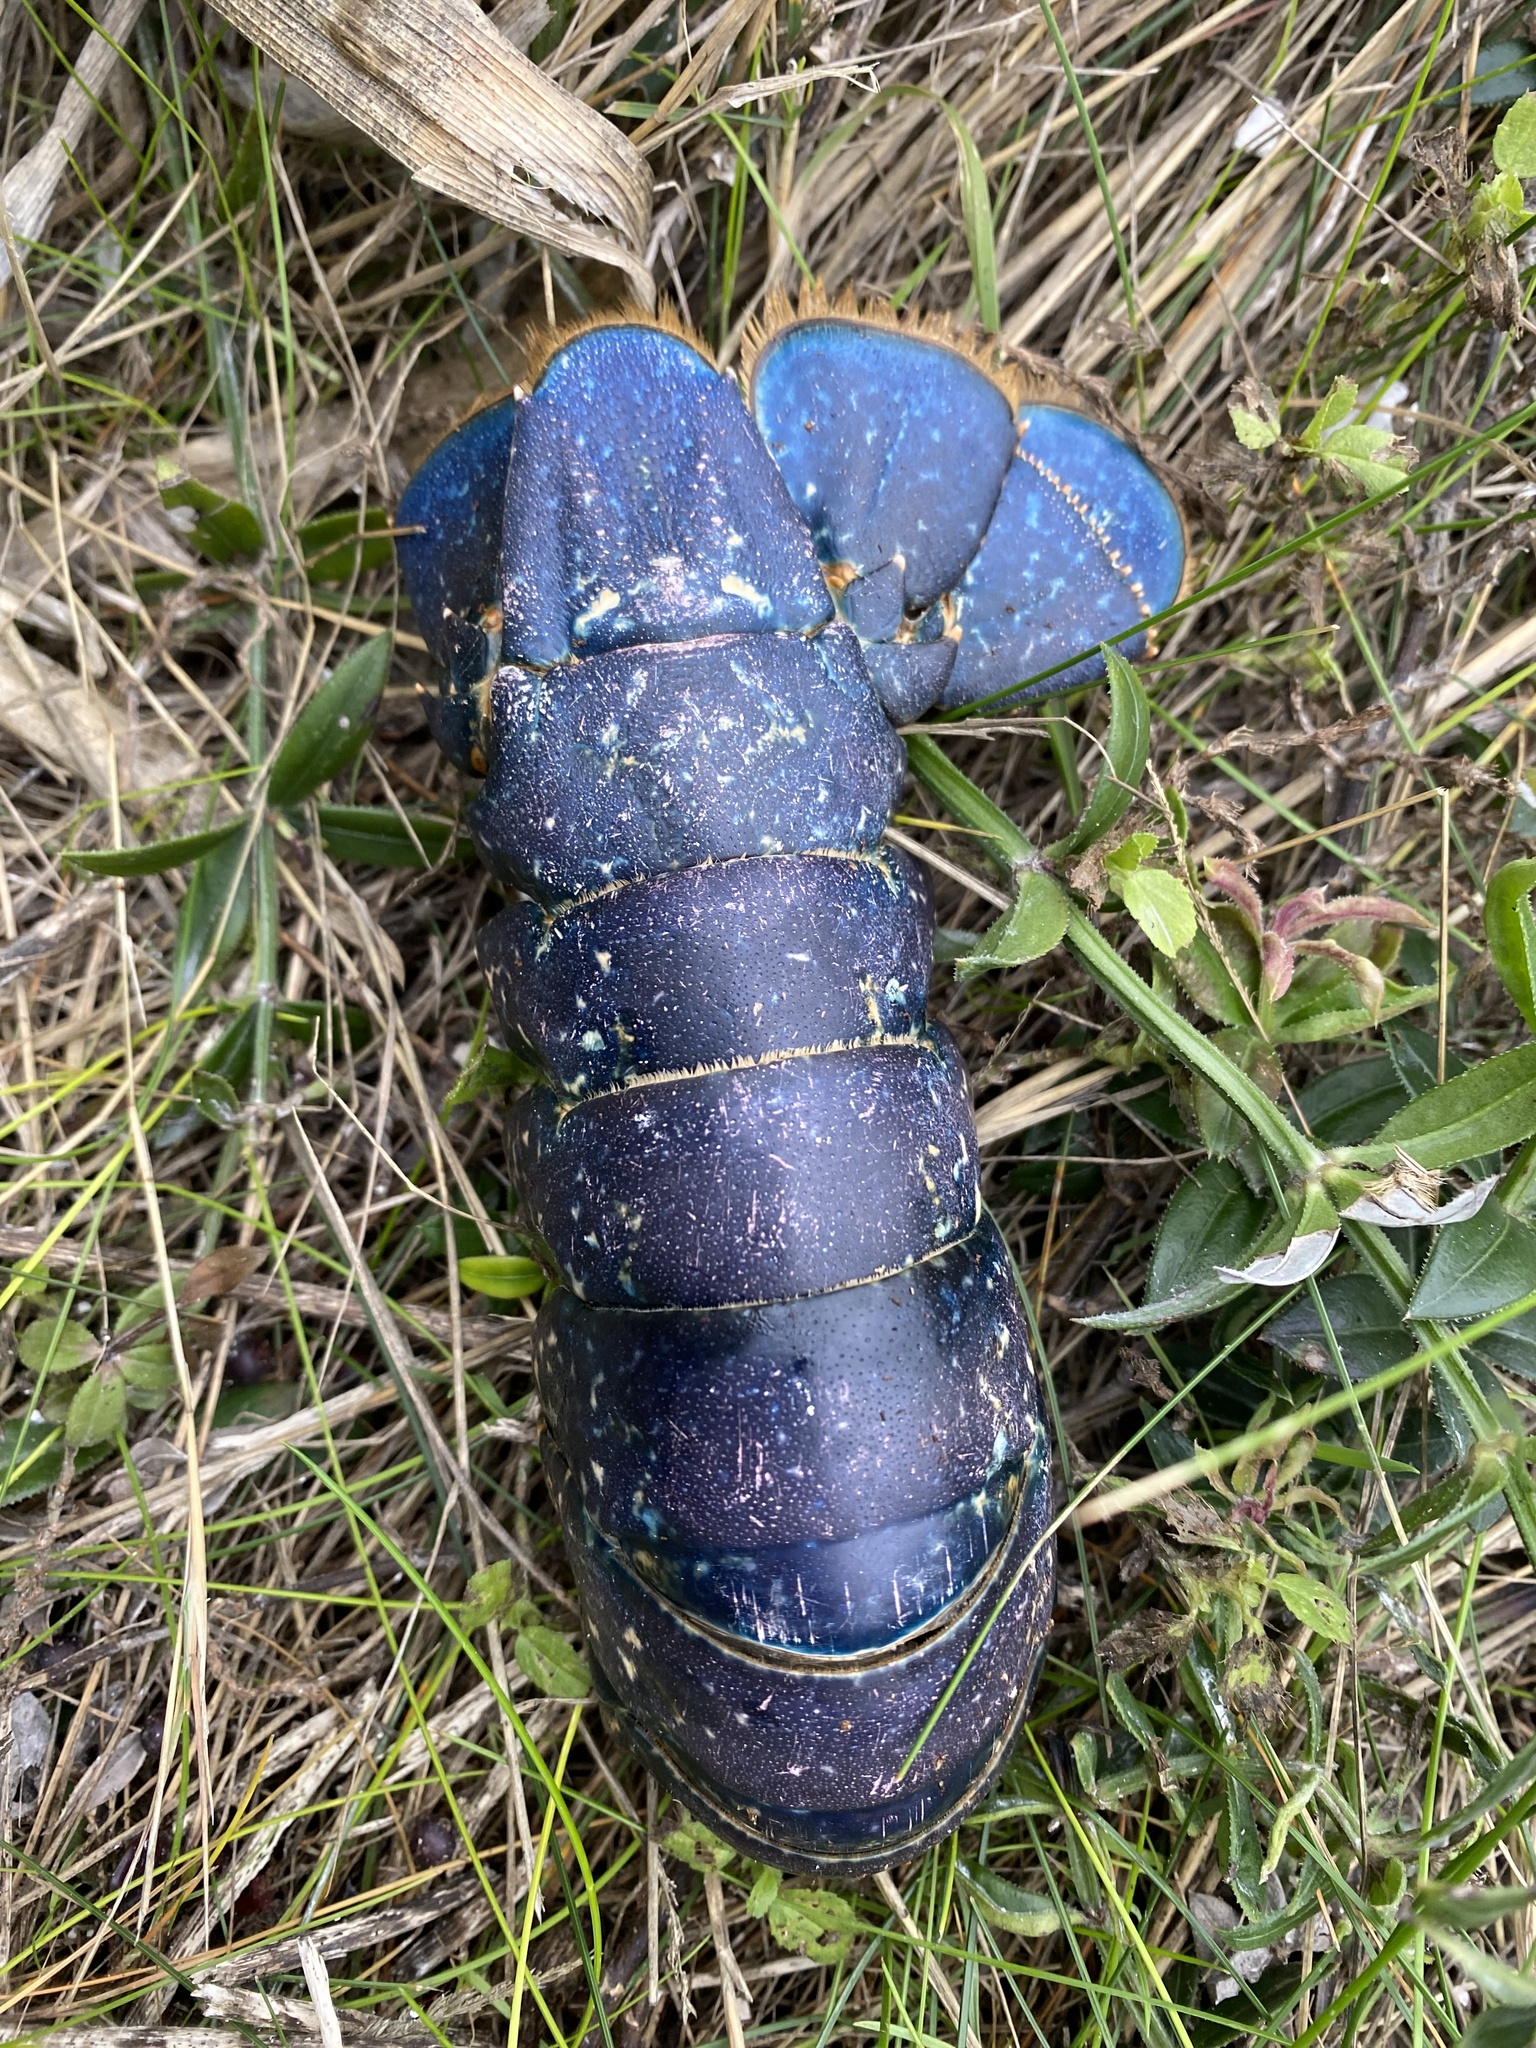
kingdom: Animalia
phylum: Arthropoda
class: Malacostraca
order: Decapoda
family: Nephropidae
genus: Homarus
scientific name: Homarus gammarus
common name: European lobster
